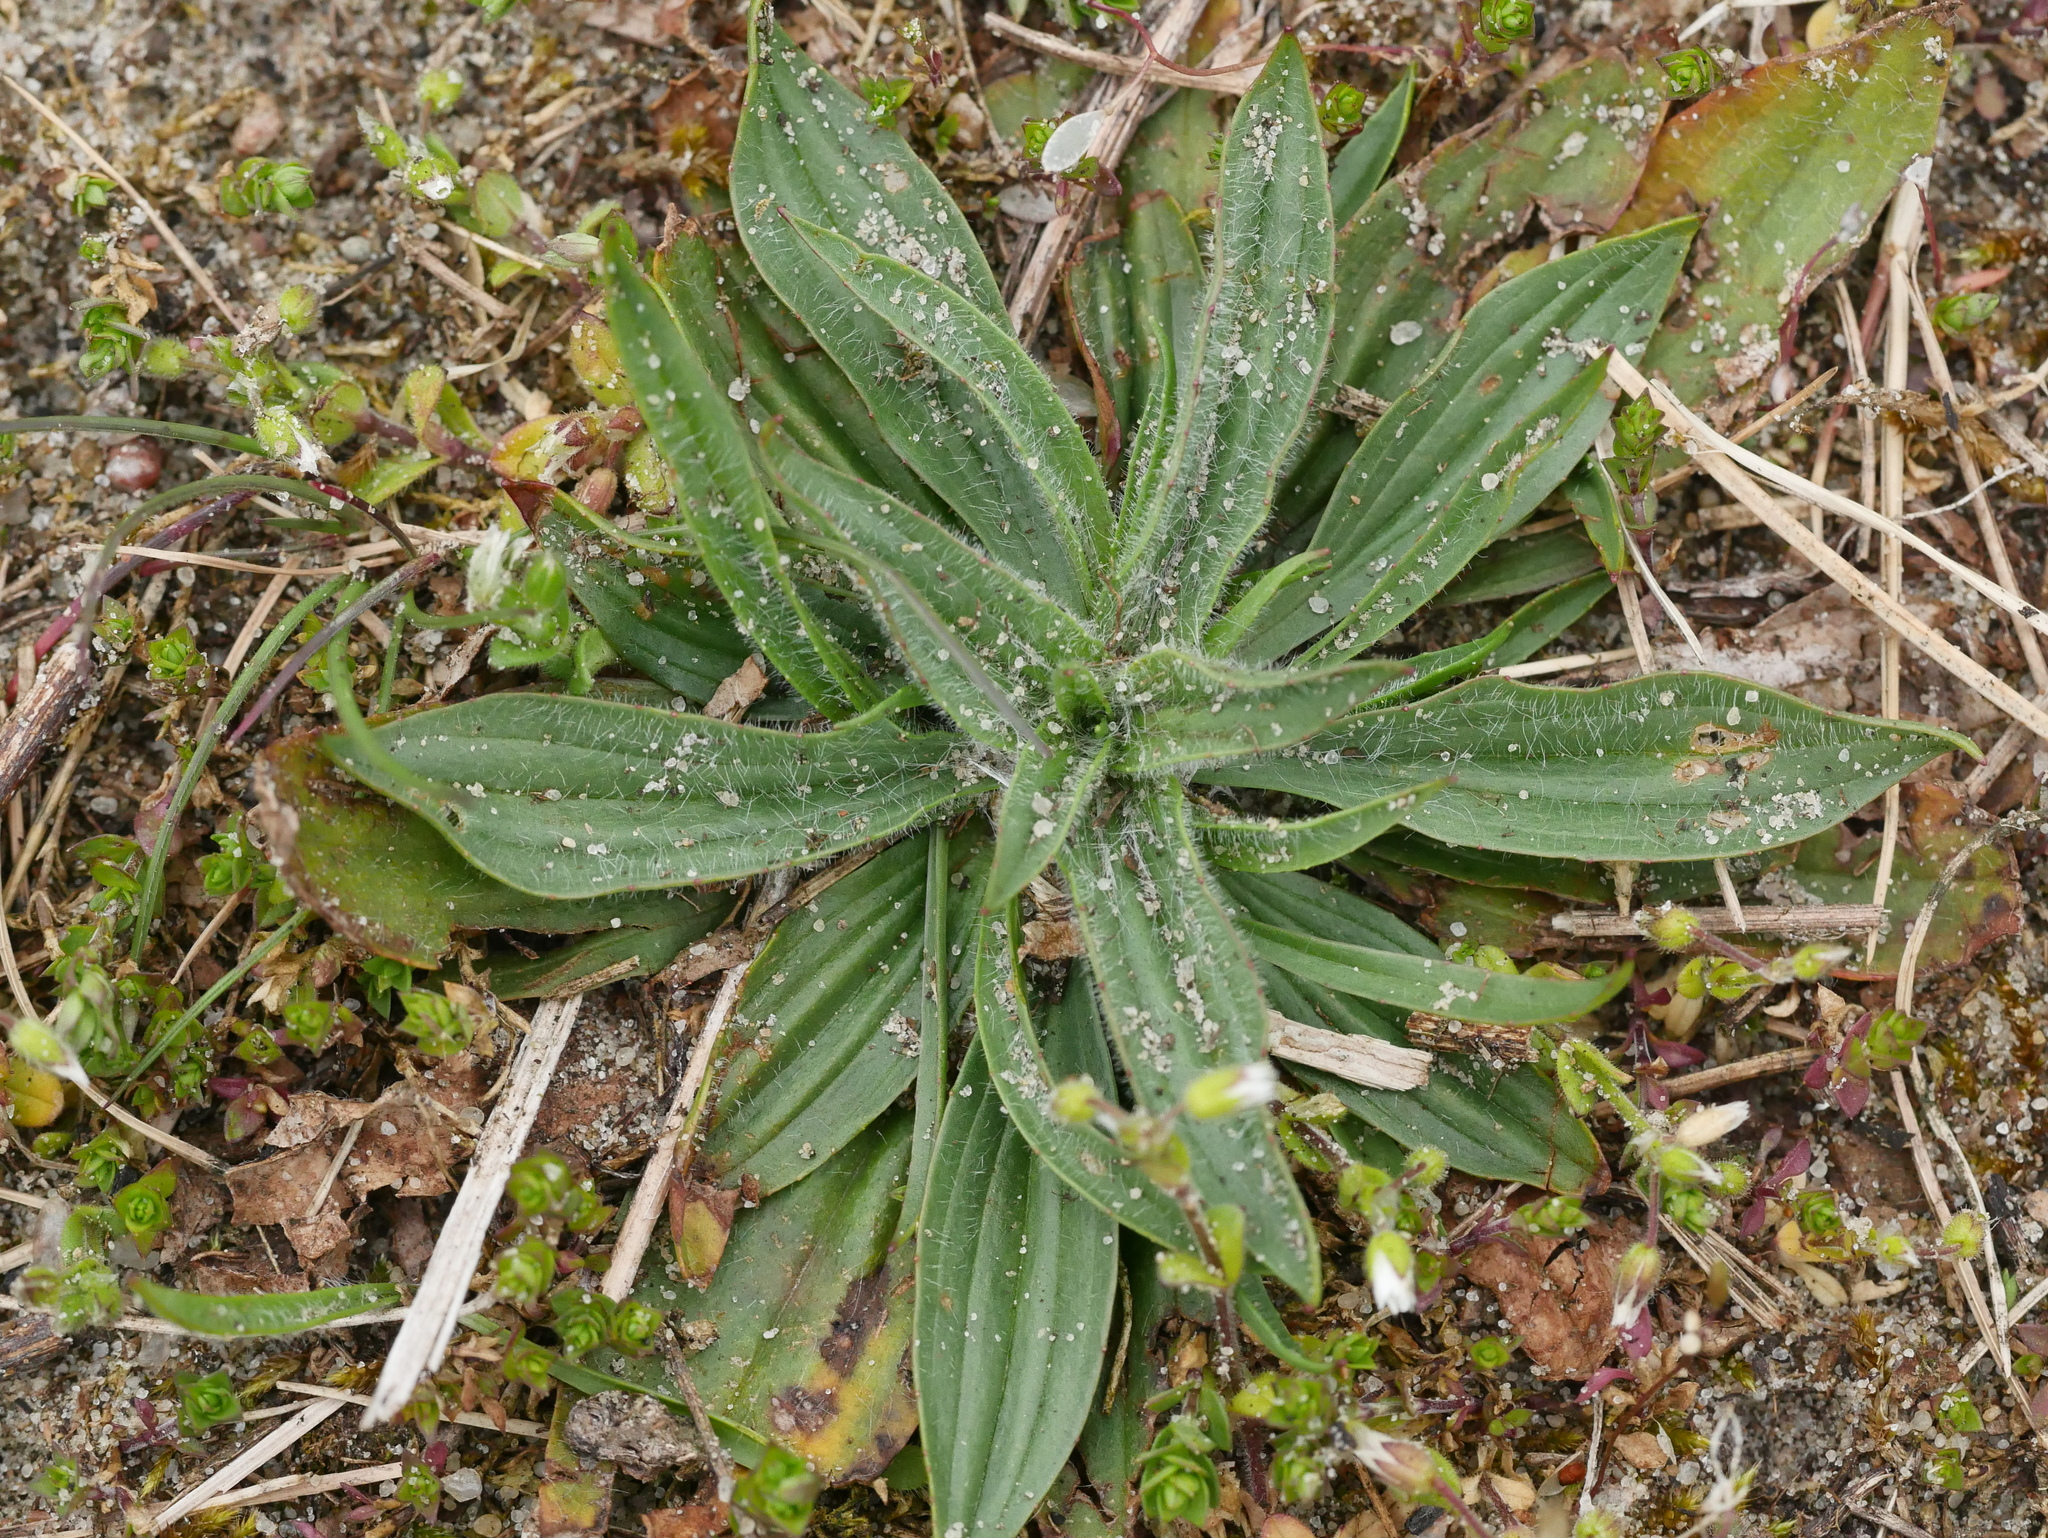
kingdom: Plantae
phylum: Tracheophyta
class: Magnoliopsida
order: Lamiales
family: Plantaginaceae
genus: Plantago
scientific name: Plantago lanceolata
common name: Ribwort plantain
